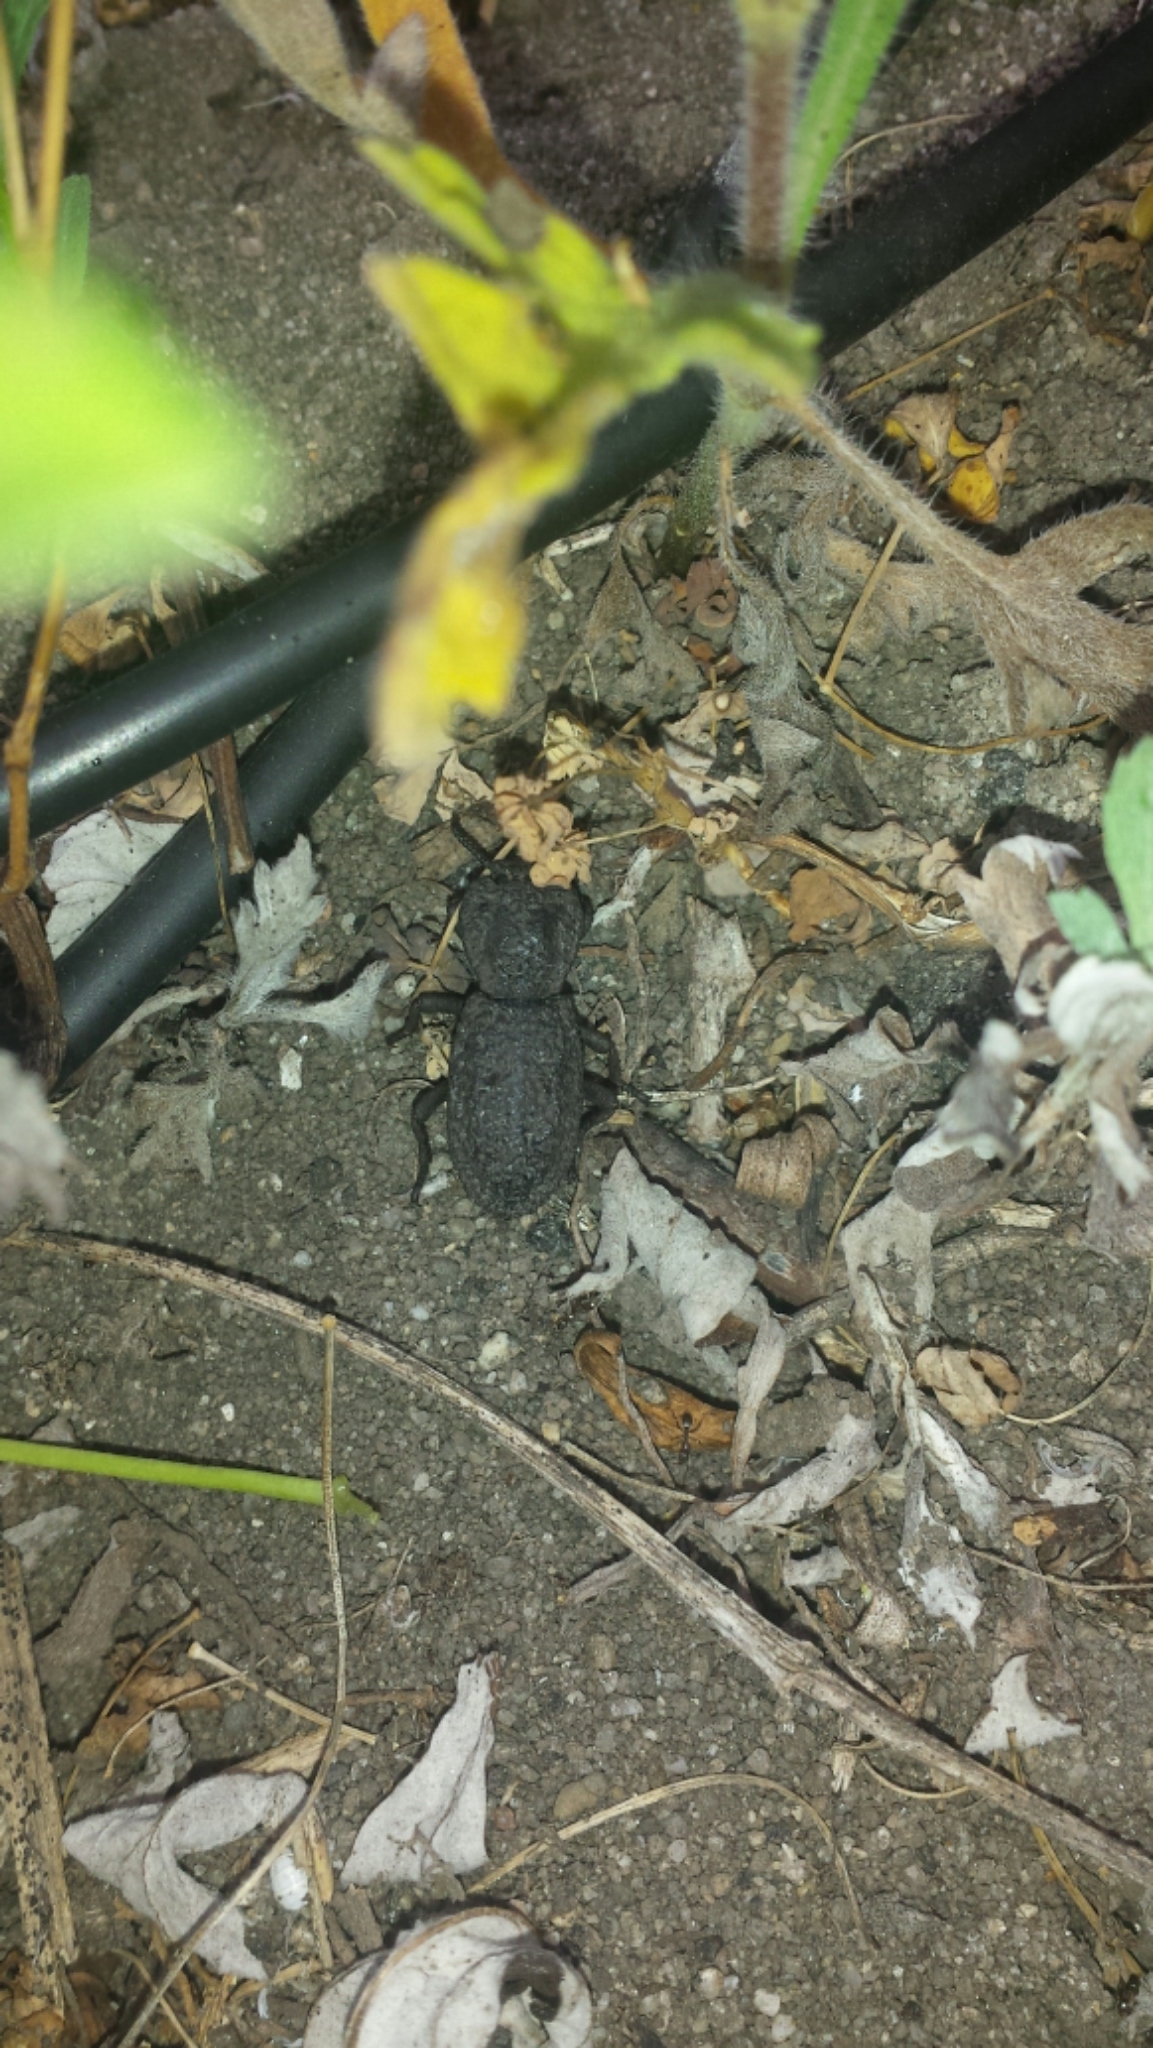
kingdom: Animalia
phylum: Arthropoda
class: Insecta
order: Coleoptera
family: Zopheridae
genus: Phloeodes
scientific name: Phloeodes diabolicus
